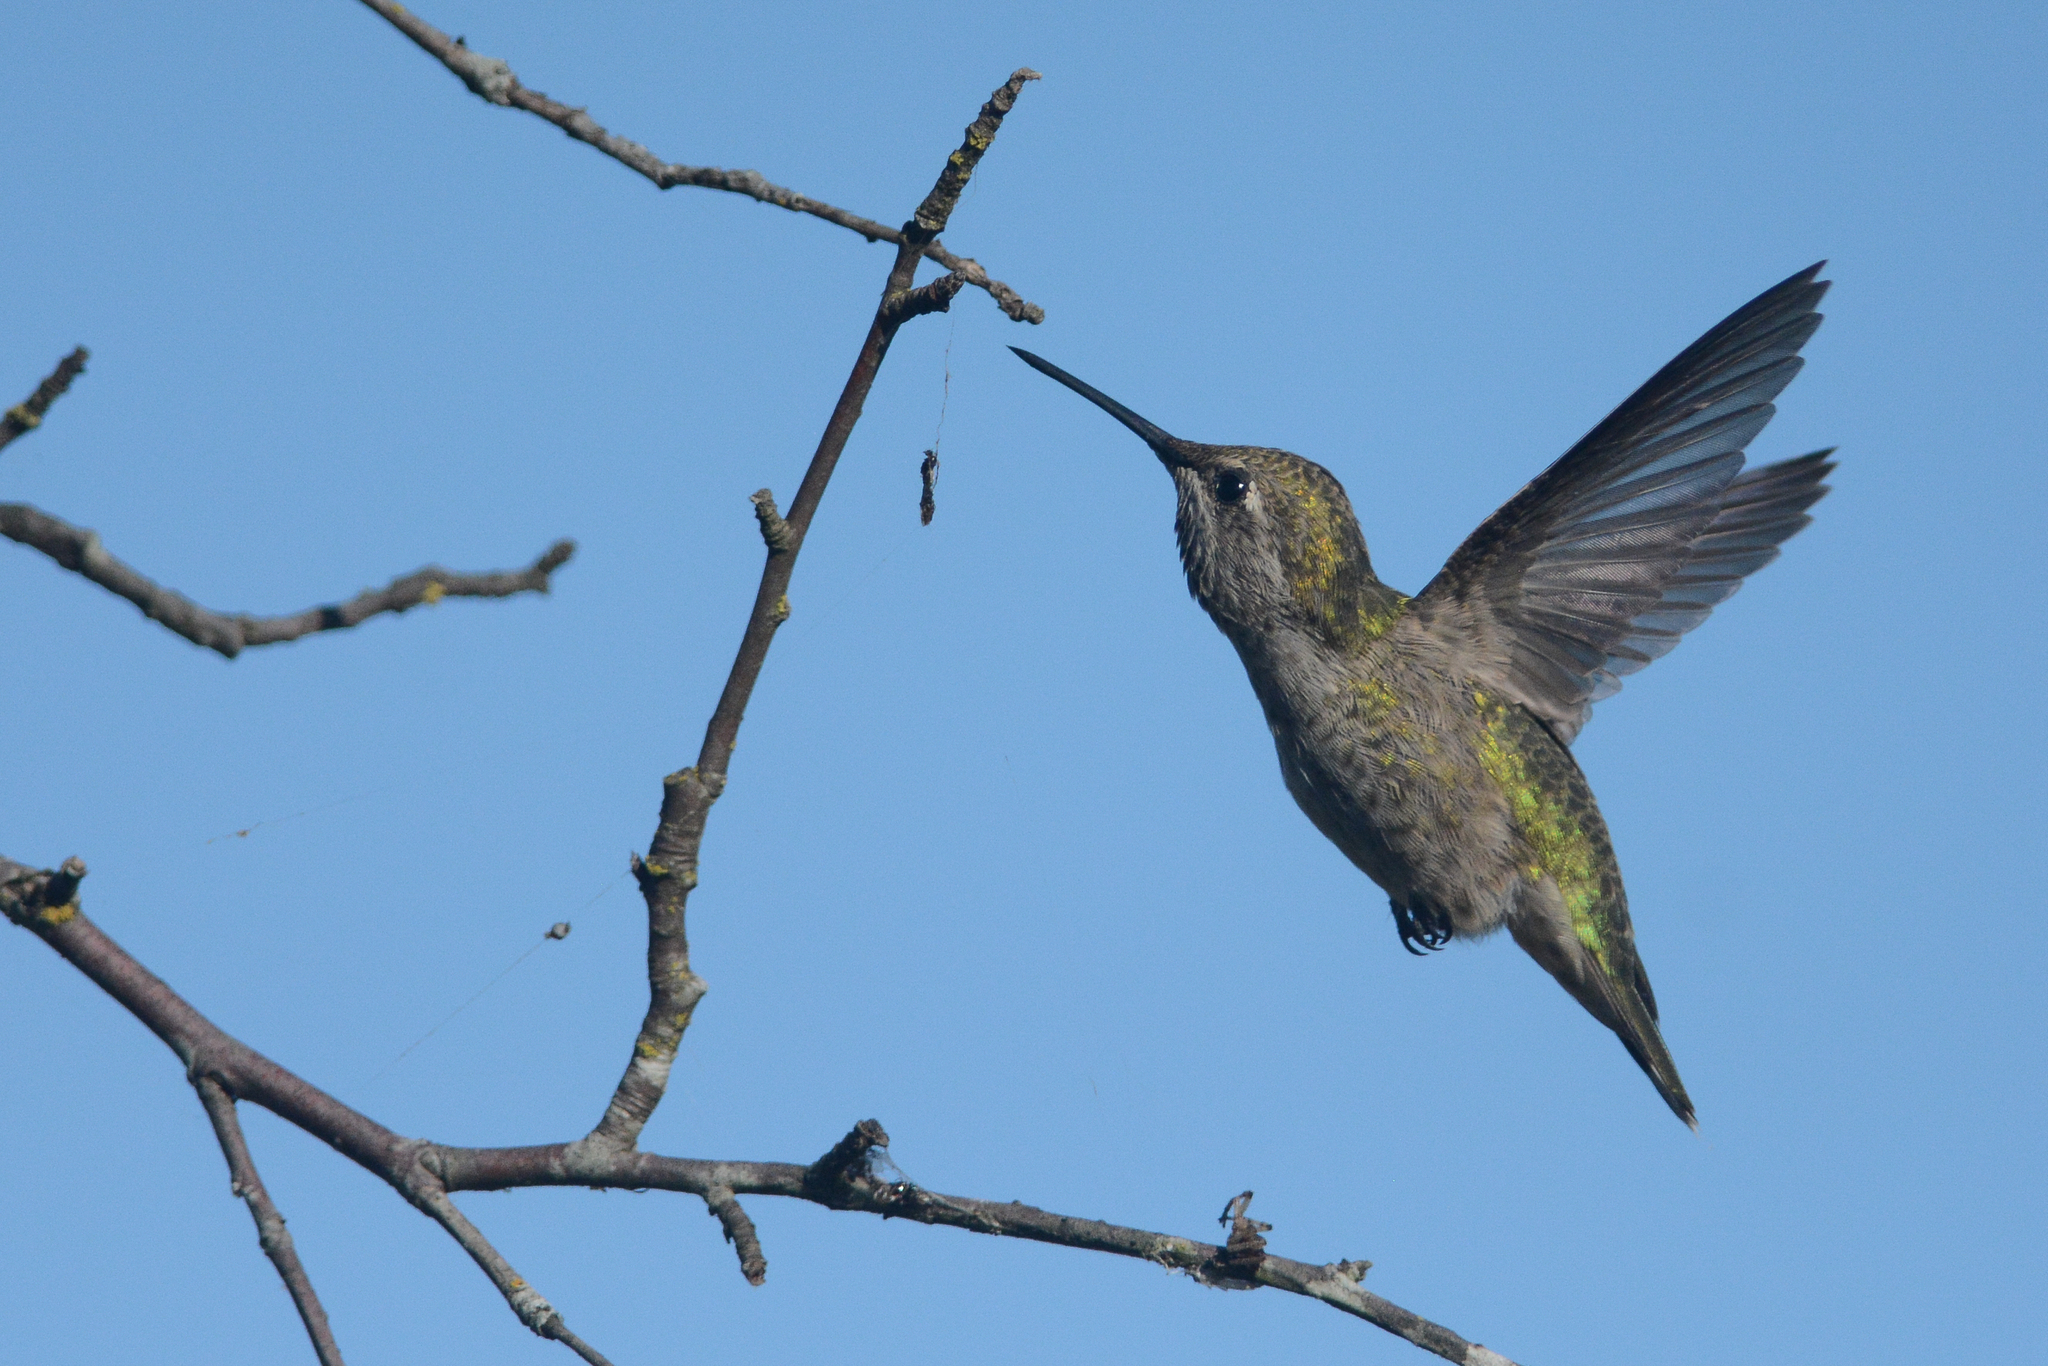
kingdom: Animalia
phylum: Chordata
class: Aves
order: Apodiformes
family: Trochilidae
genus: Calypte
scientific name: Calypte anna
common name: Anna's hummingbird
